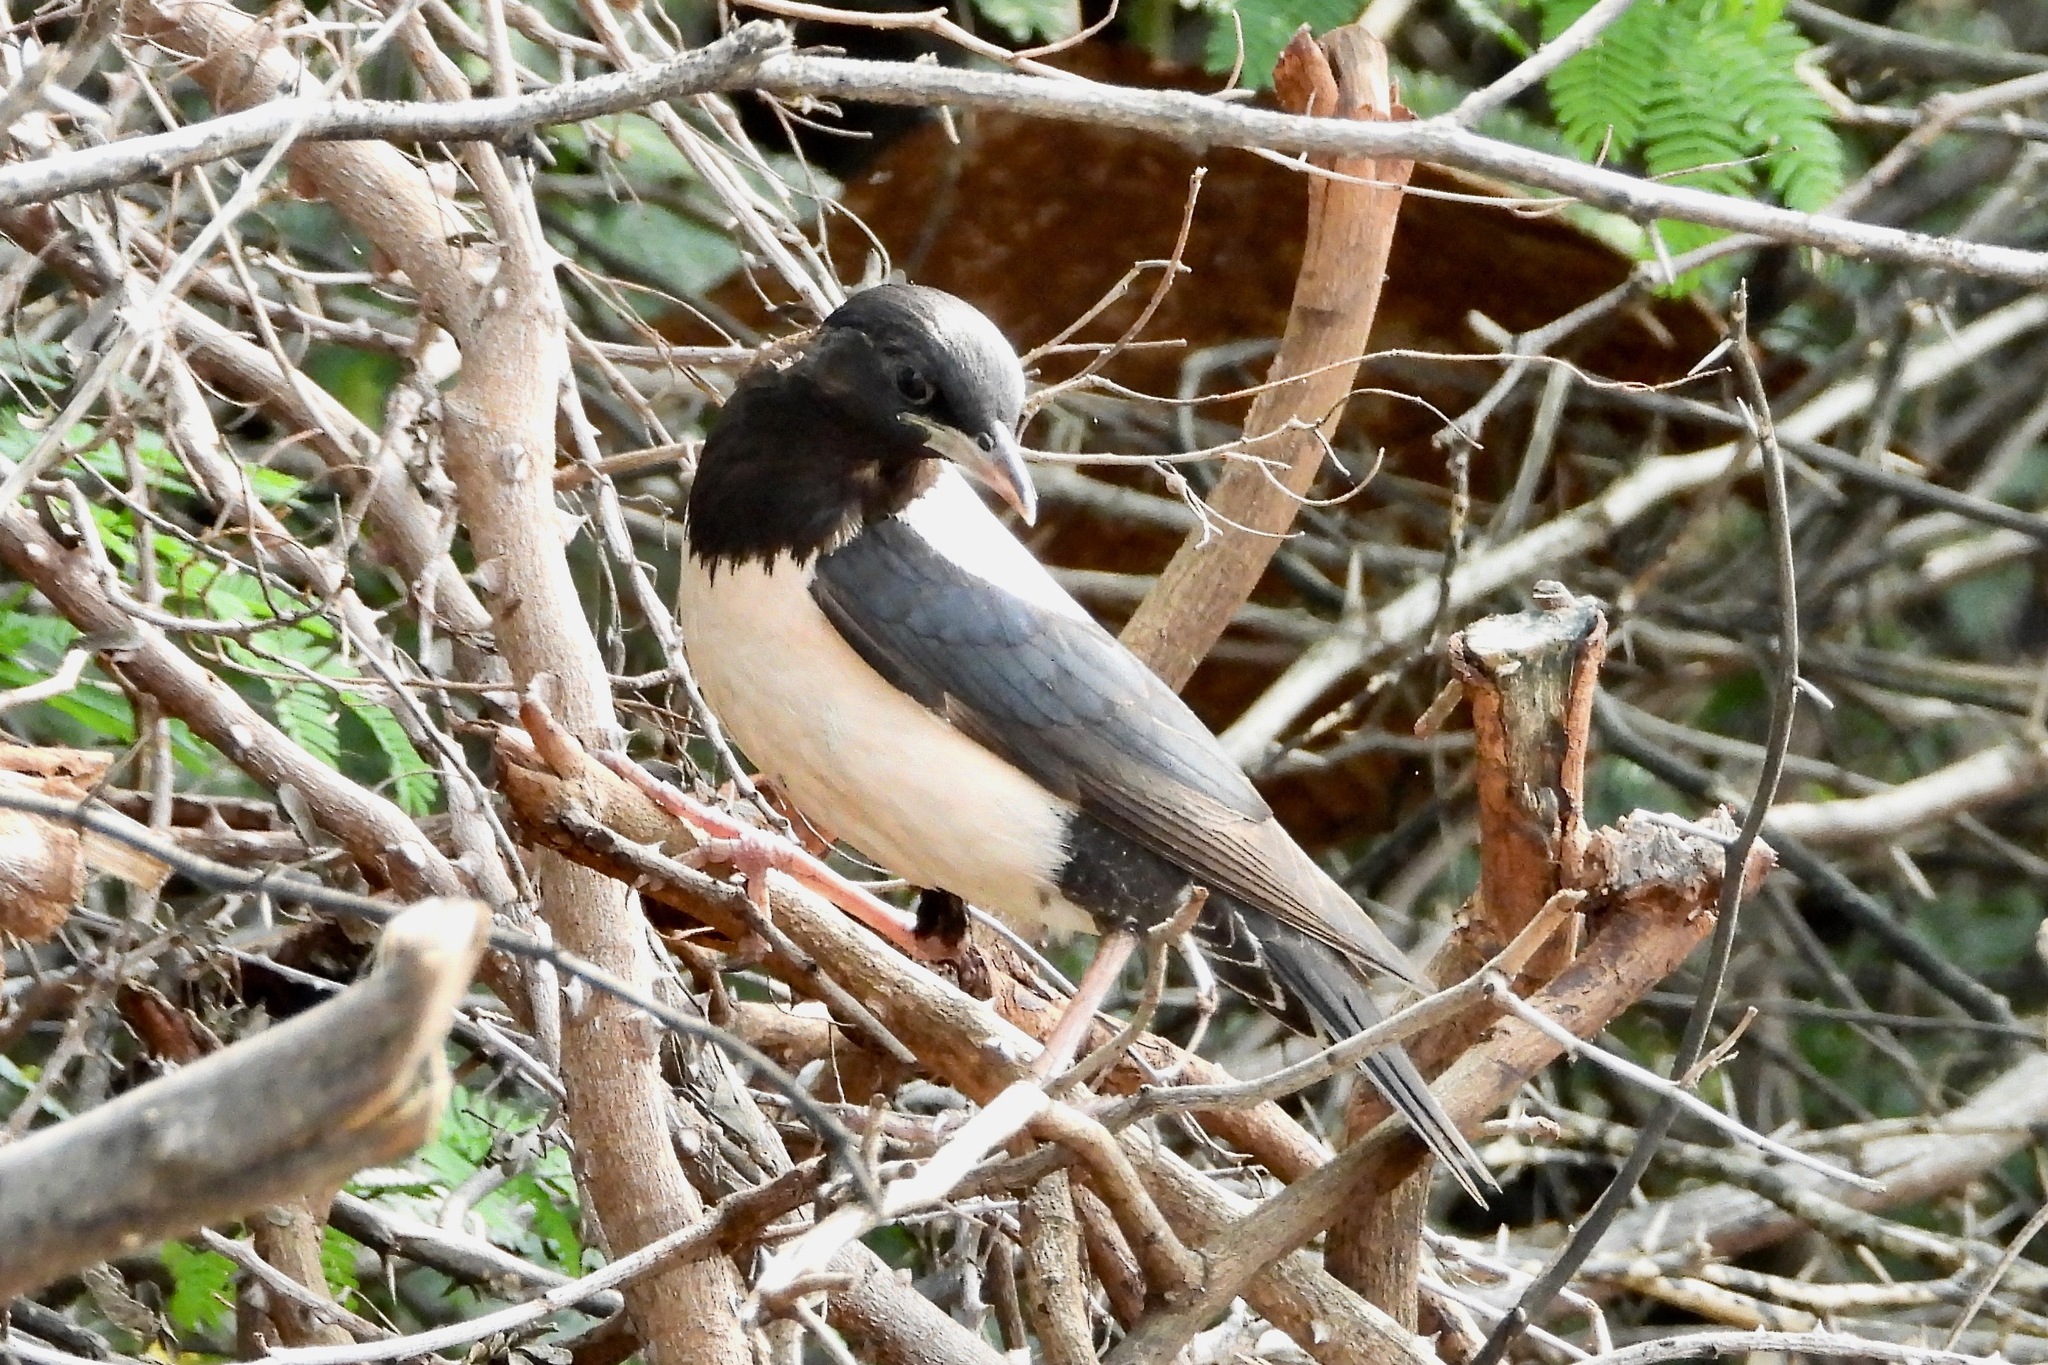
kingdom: Animalia
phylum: Chordata
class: Aves
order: Passeriformes
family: Sturnidae
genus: Pastor
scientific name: Pastor roseus
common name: Rosy starling
